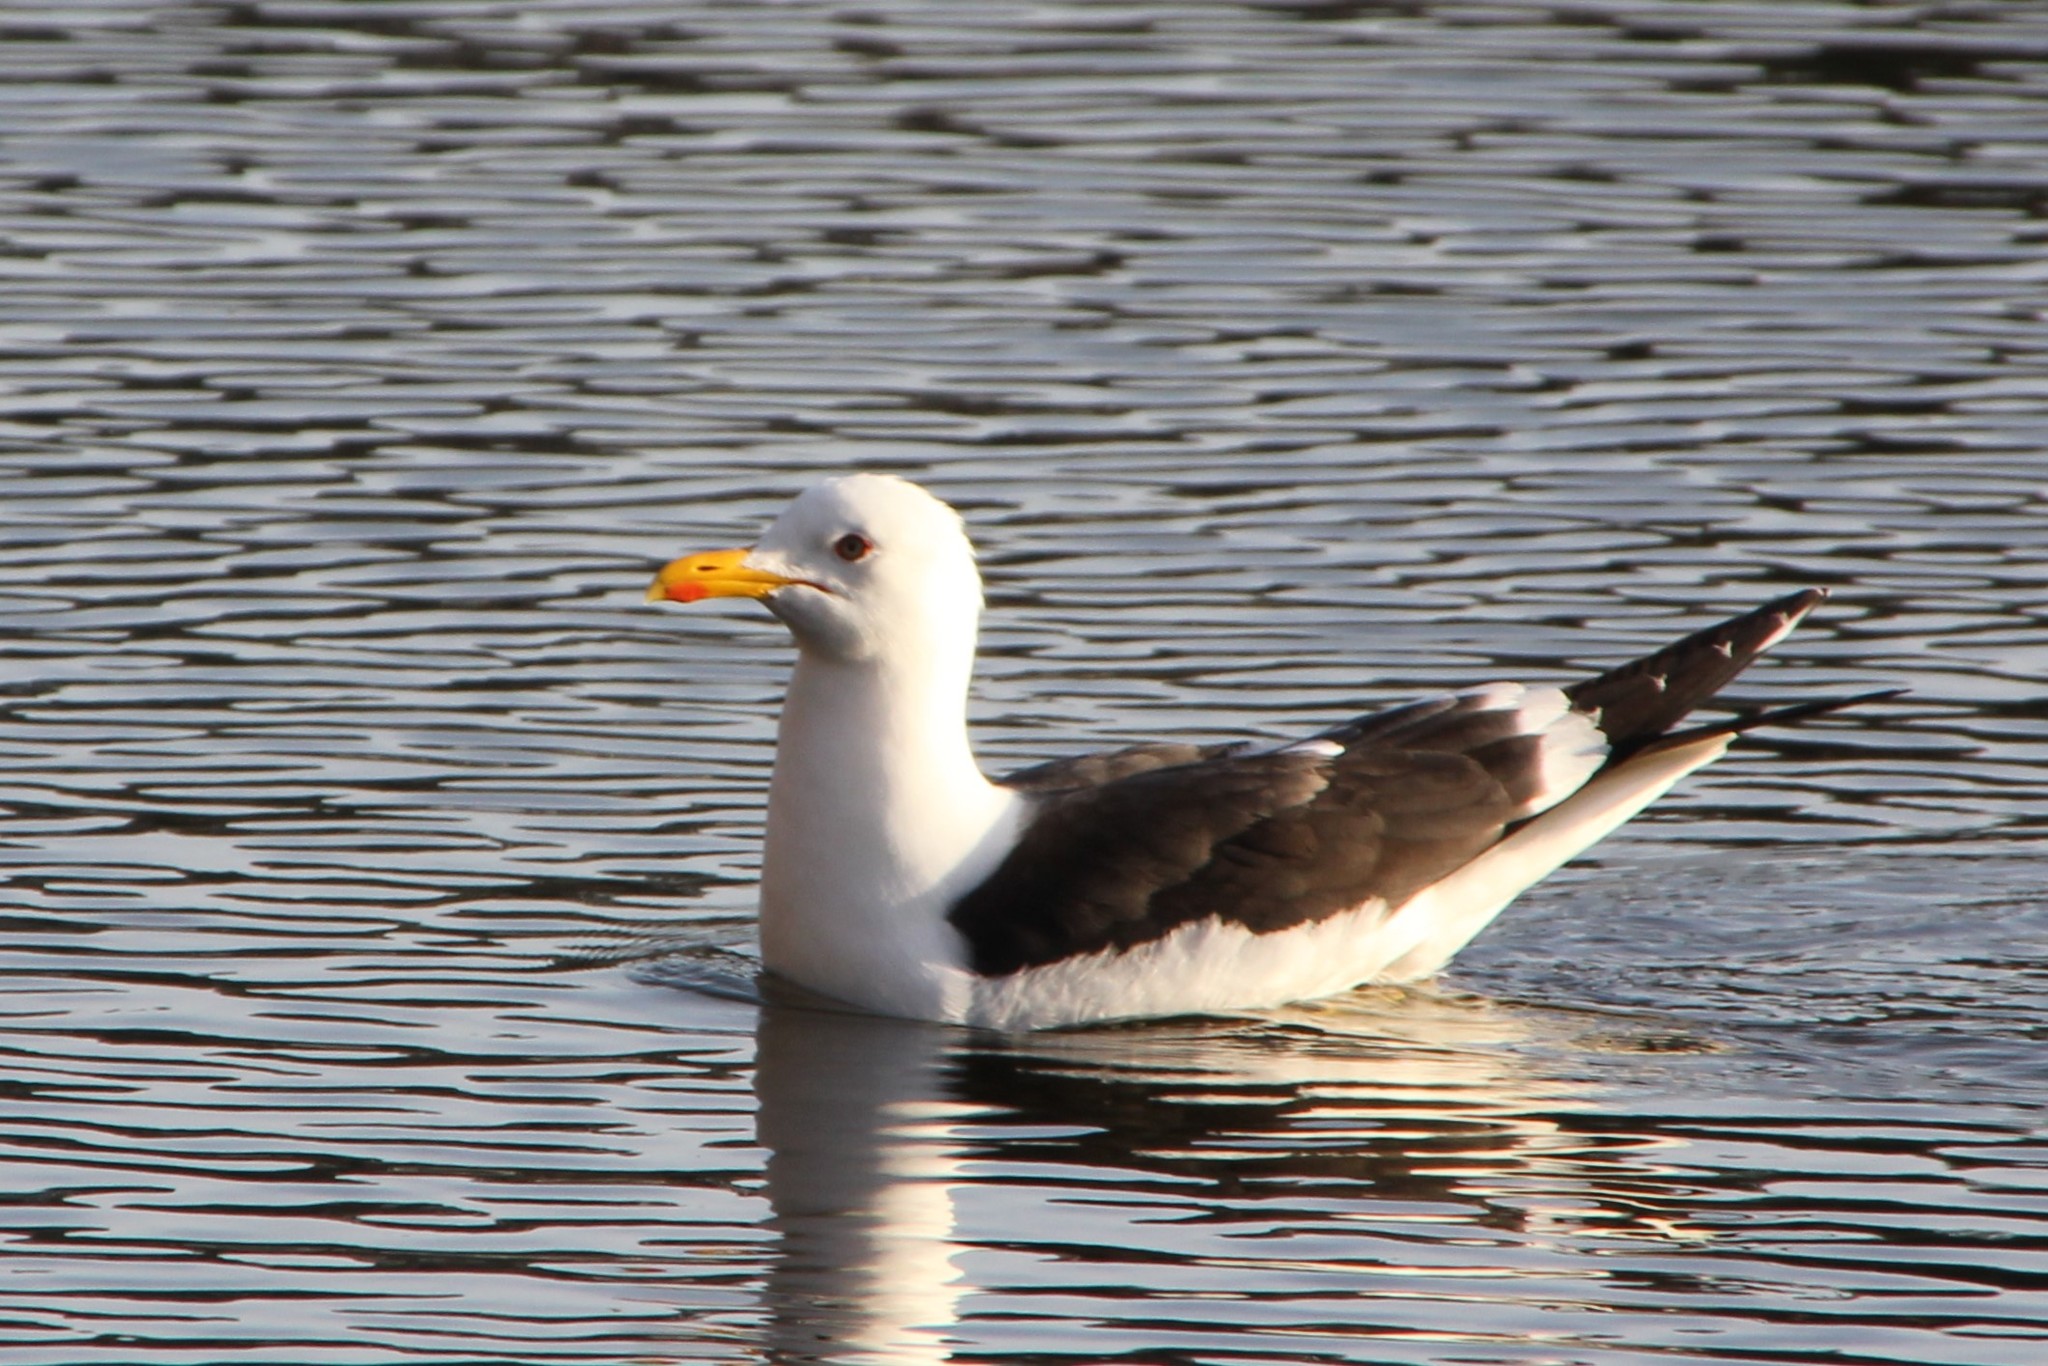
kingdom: Animalia
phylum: Chordata
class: Aves
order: Charadriiformes
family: Laridae
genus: Larus
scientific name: Larus fuscus
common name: Lesser black-backed gull
